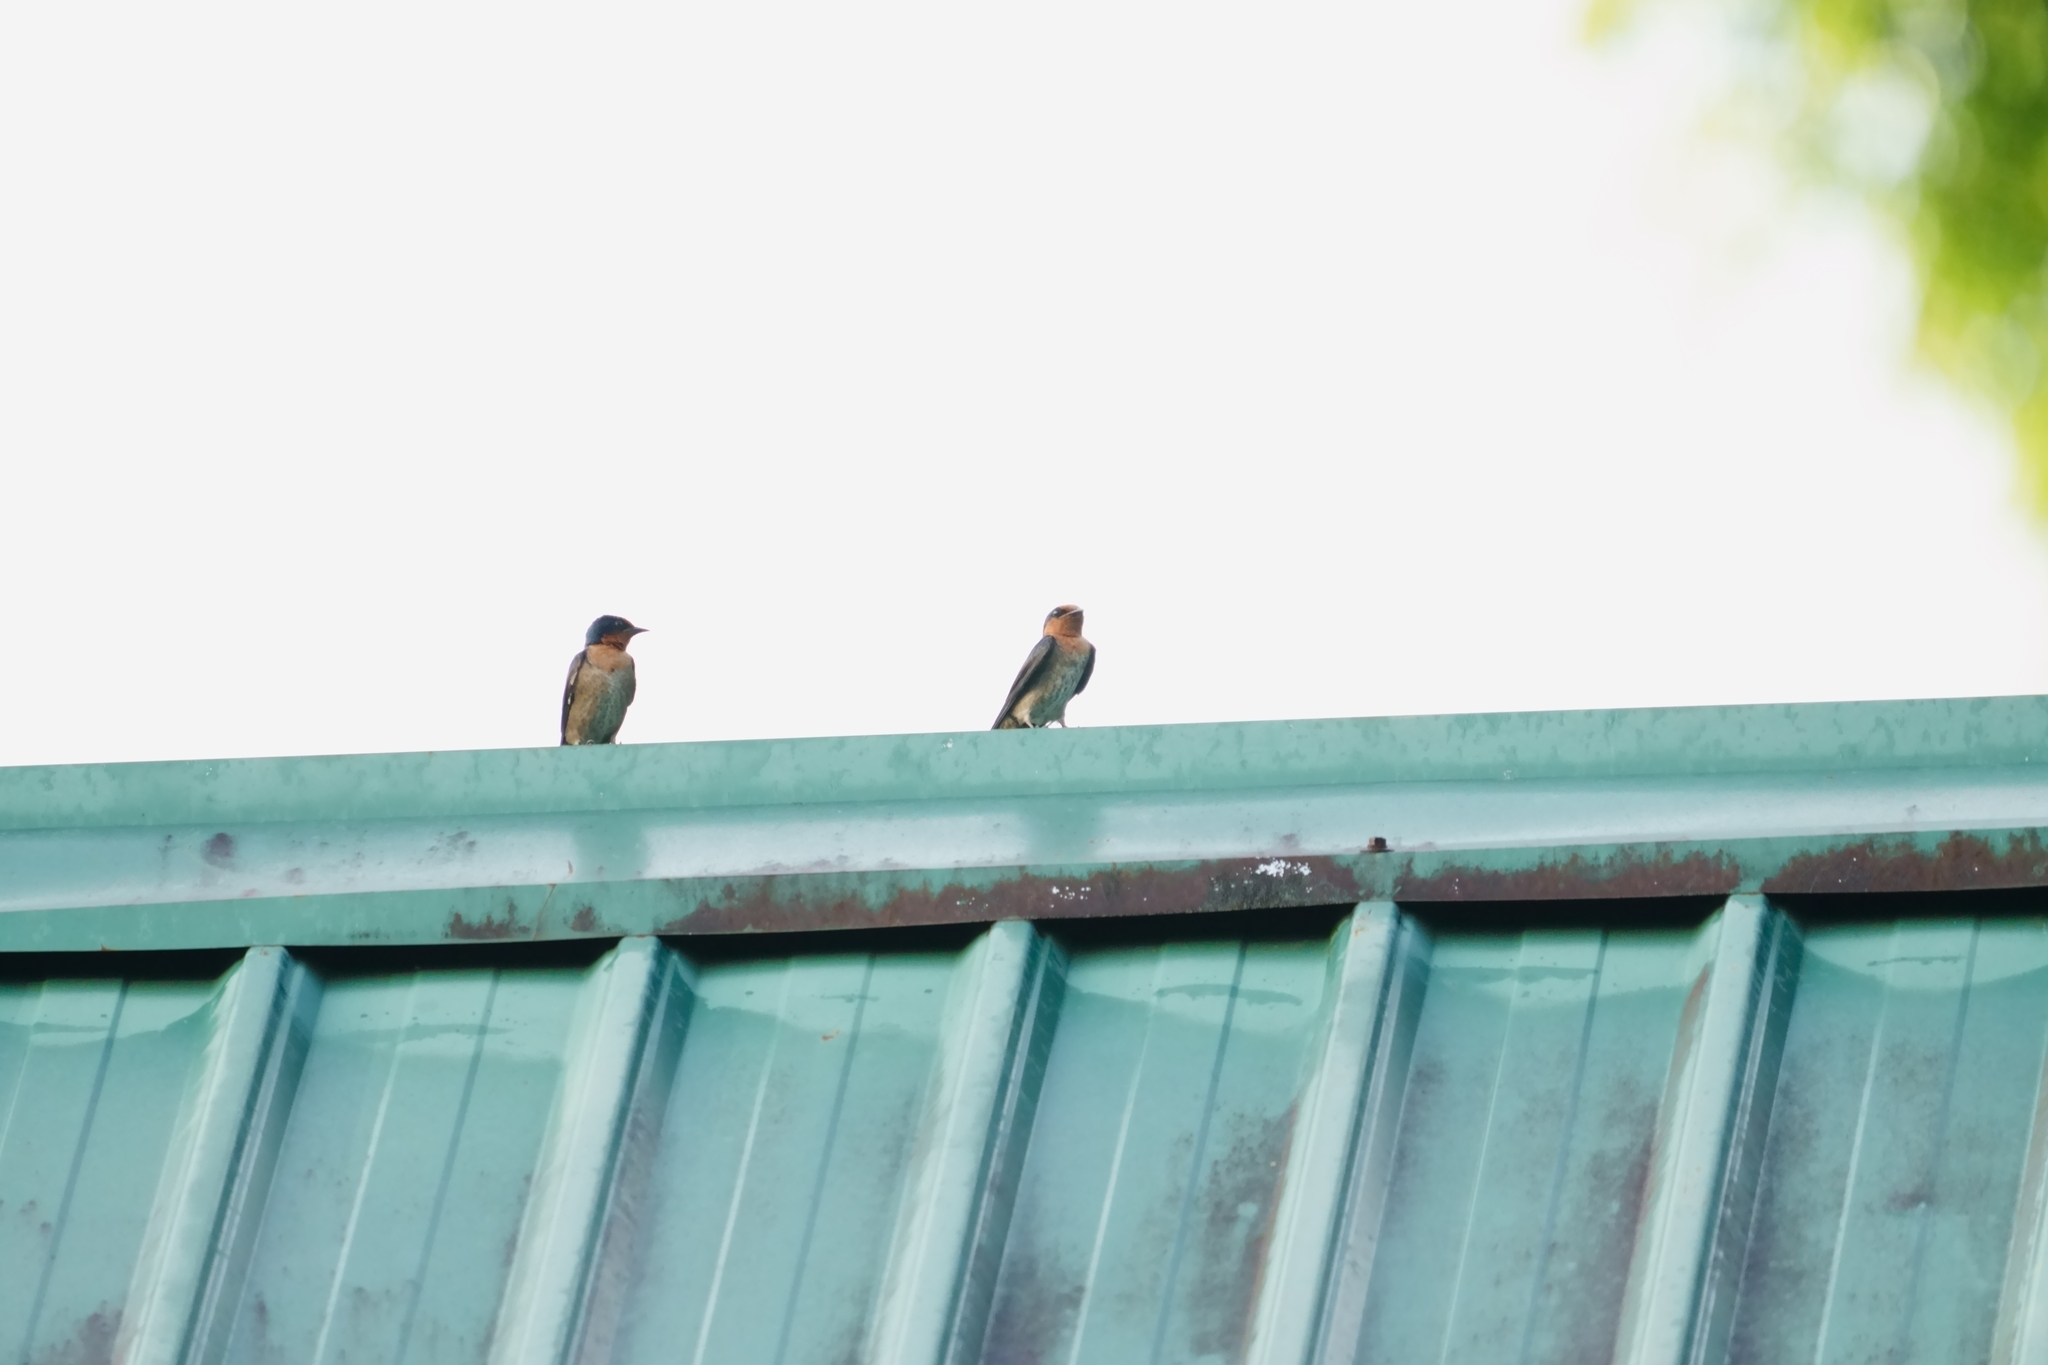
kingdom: Animalia
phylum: Chordata
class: Aves
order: Passeriformes
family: Hirundinidae
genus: Hirundo
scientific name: Hirundo tahitica
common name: Pacific swallow
